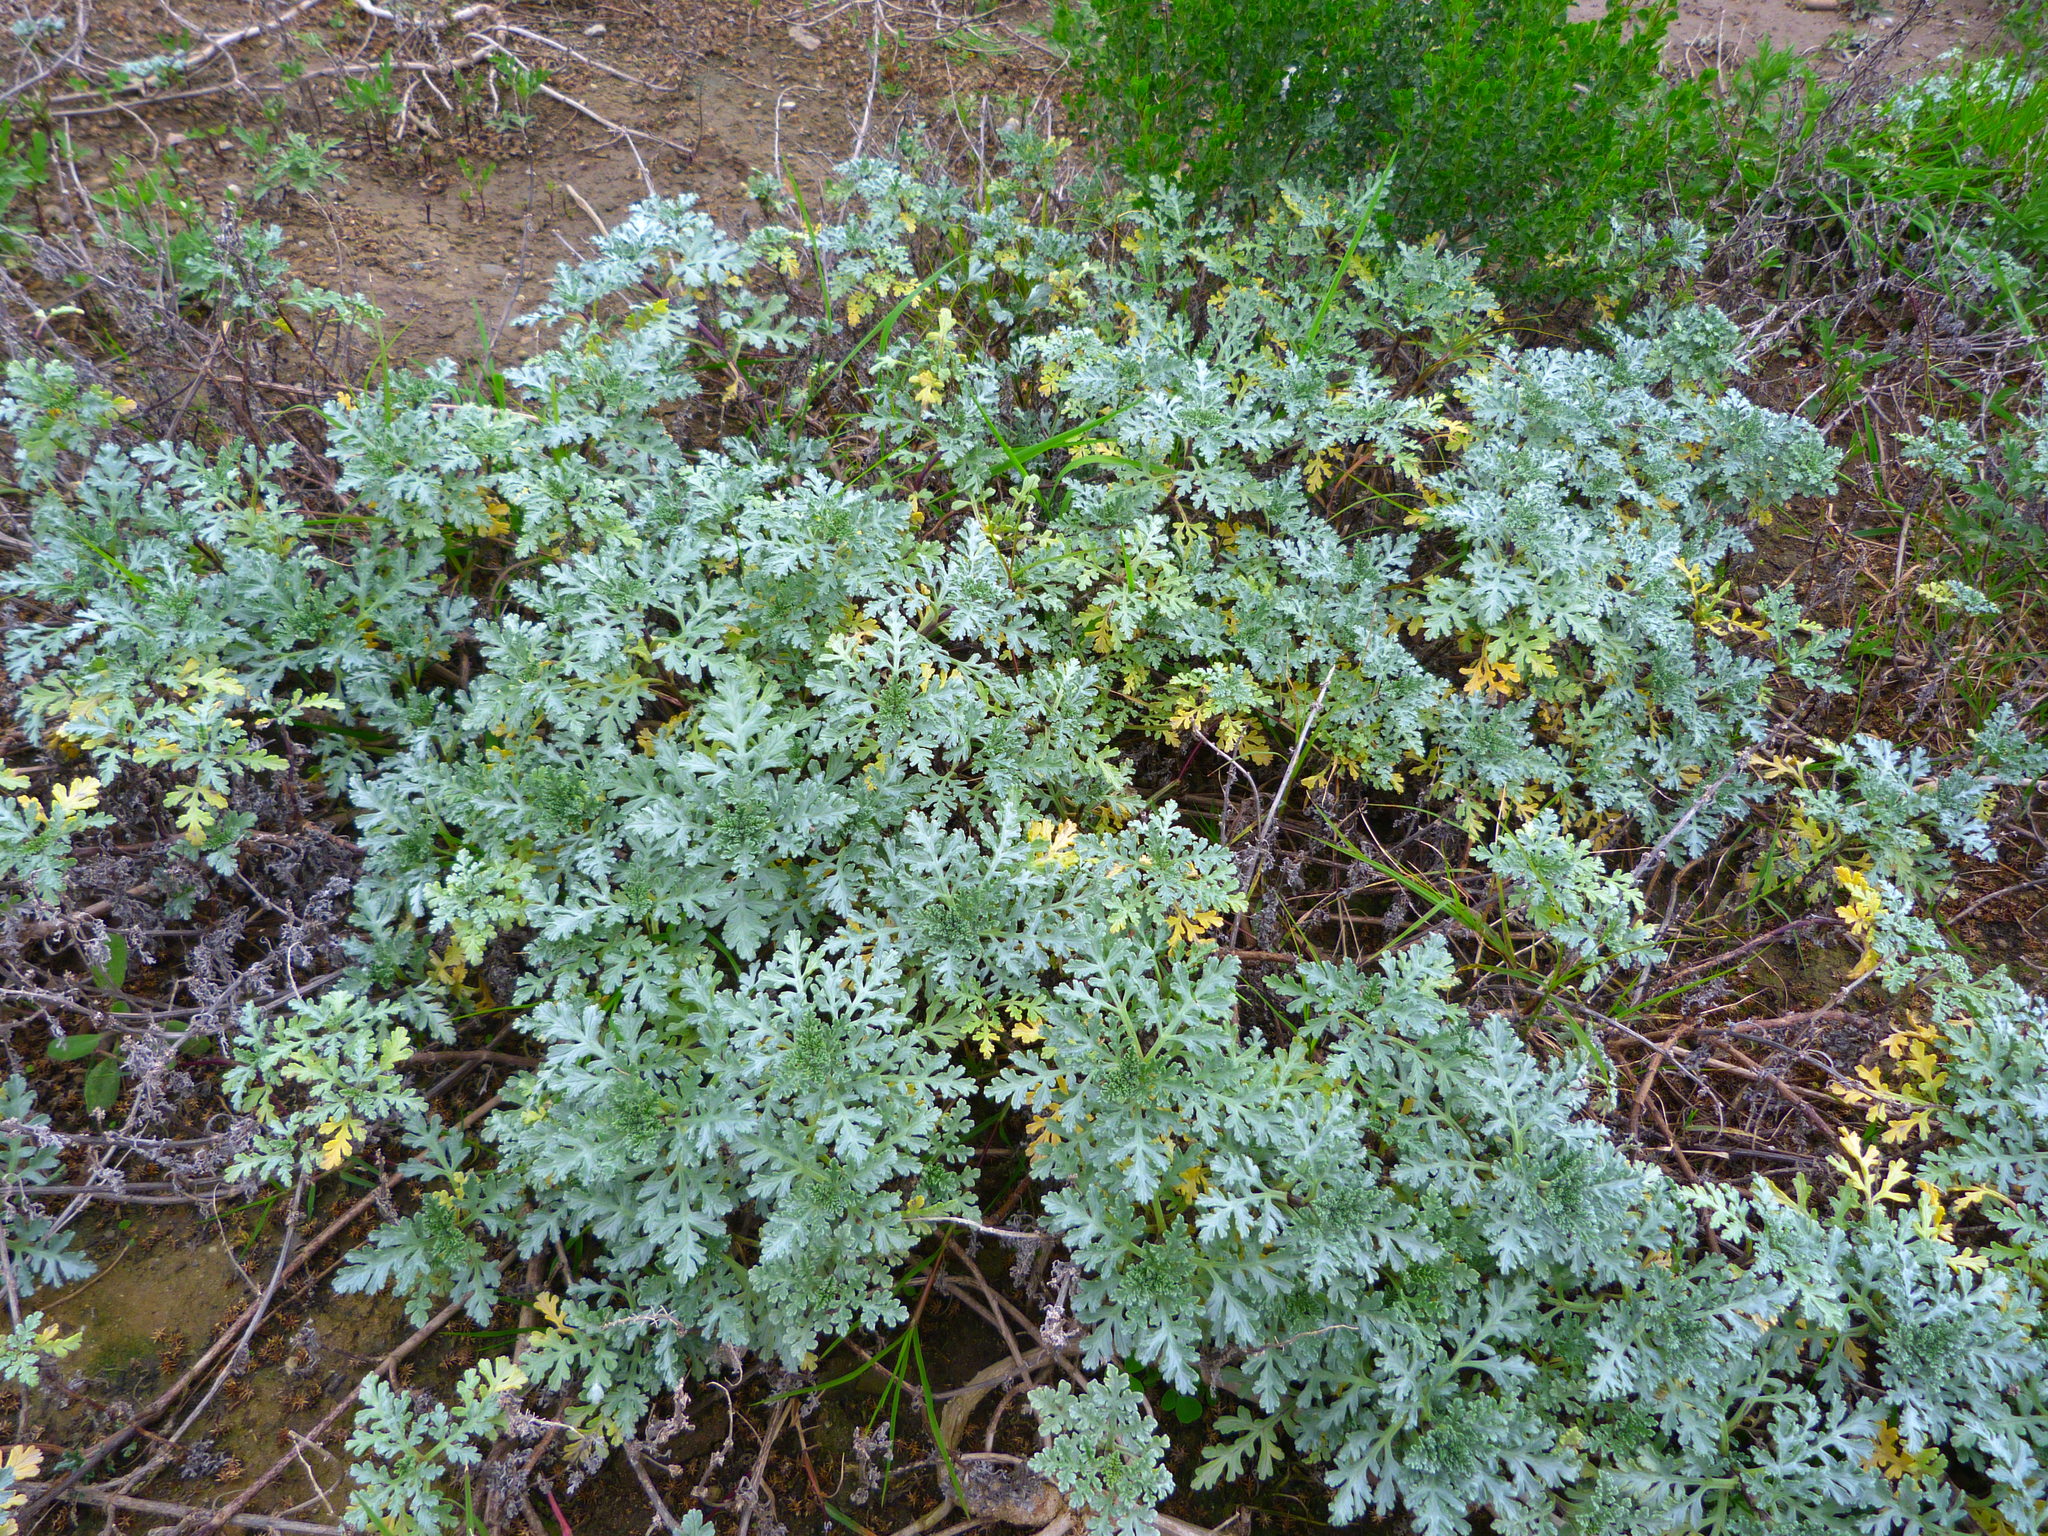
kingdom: Plantae
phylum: Tracheophyta
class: Magnoliopsida
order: Asterales
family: Asteraceae
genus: Ambrosia
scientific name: Ambrosia chamissonis
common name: Beachbur
